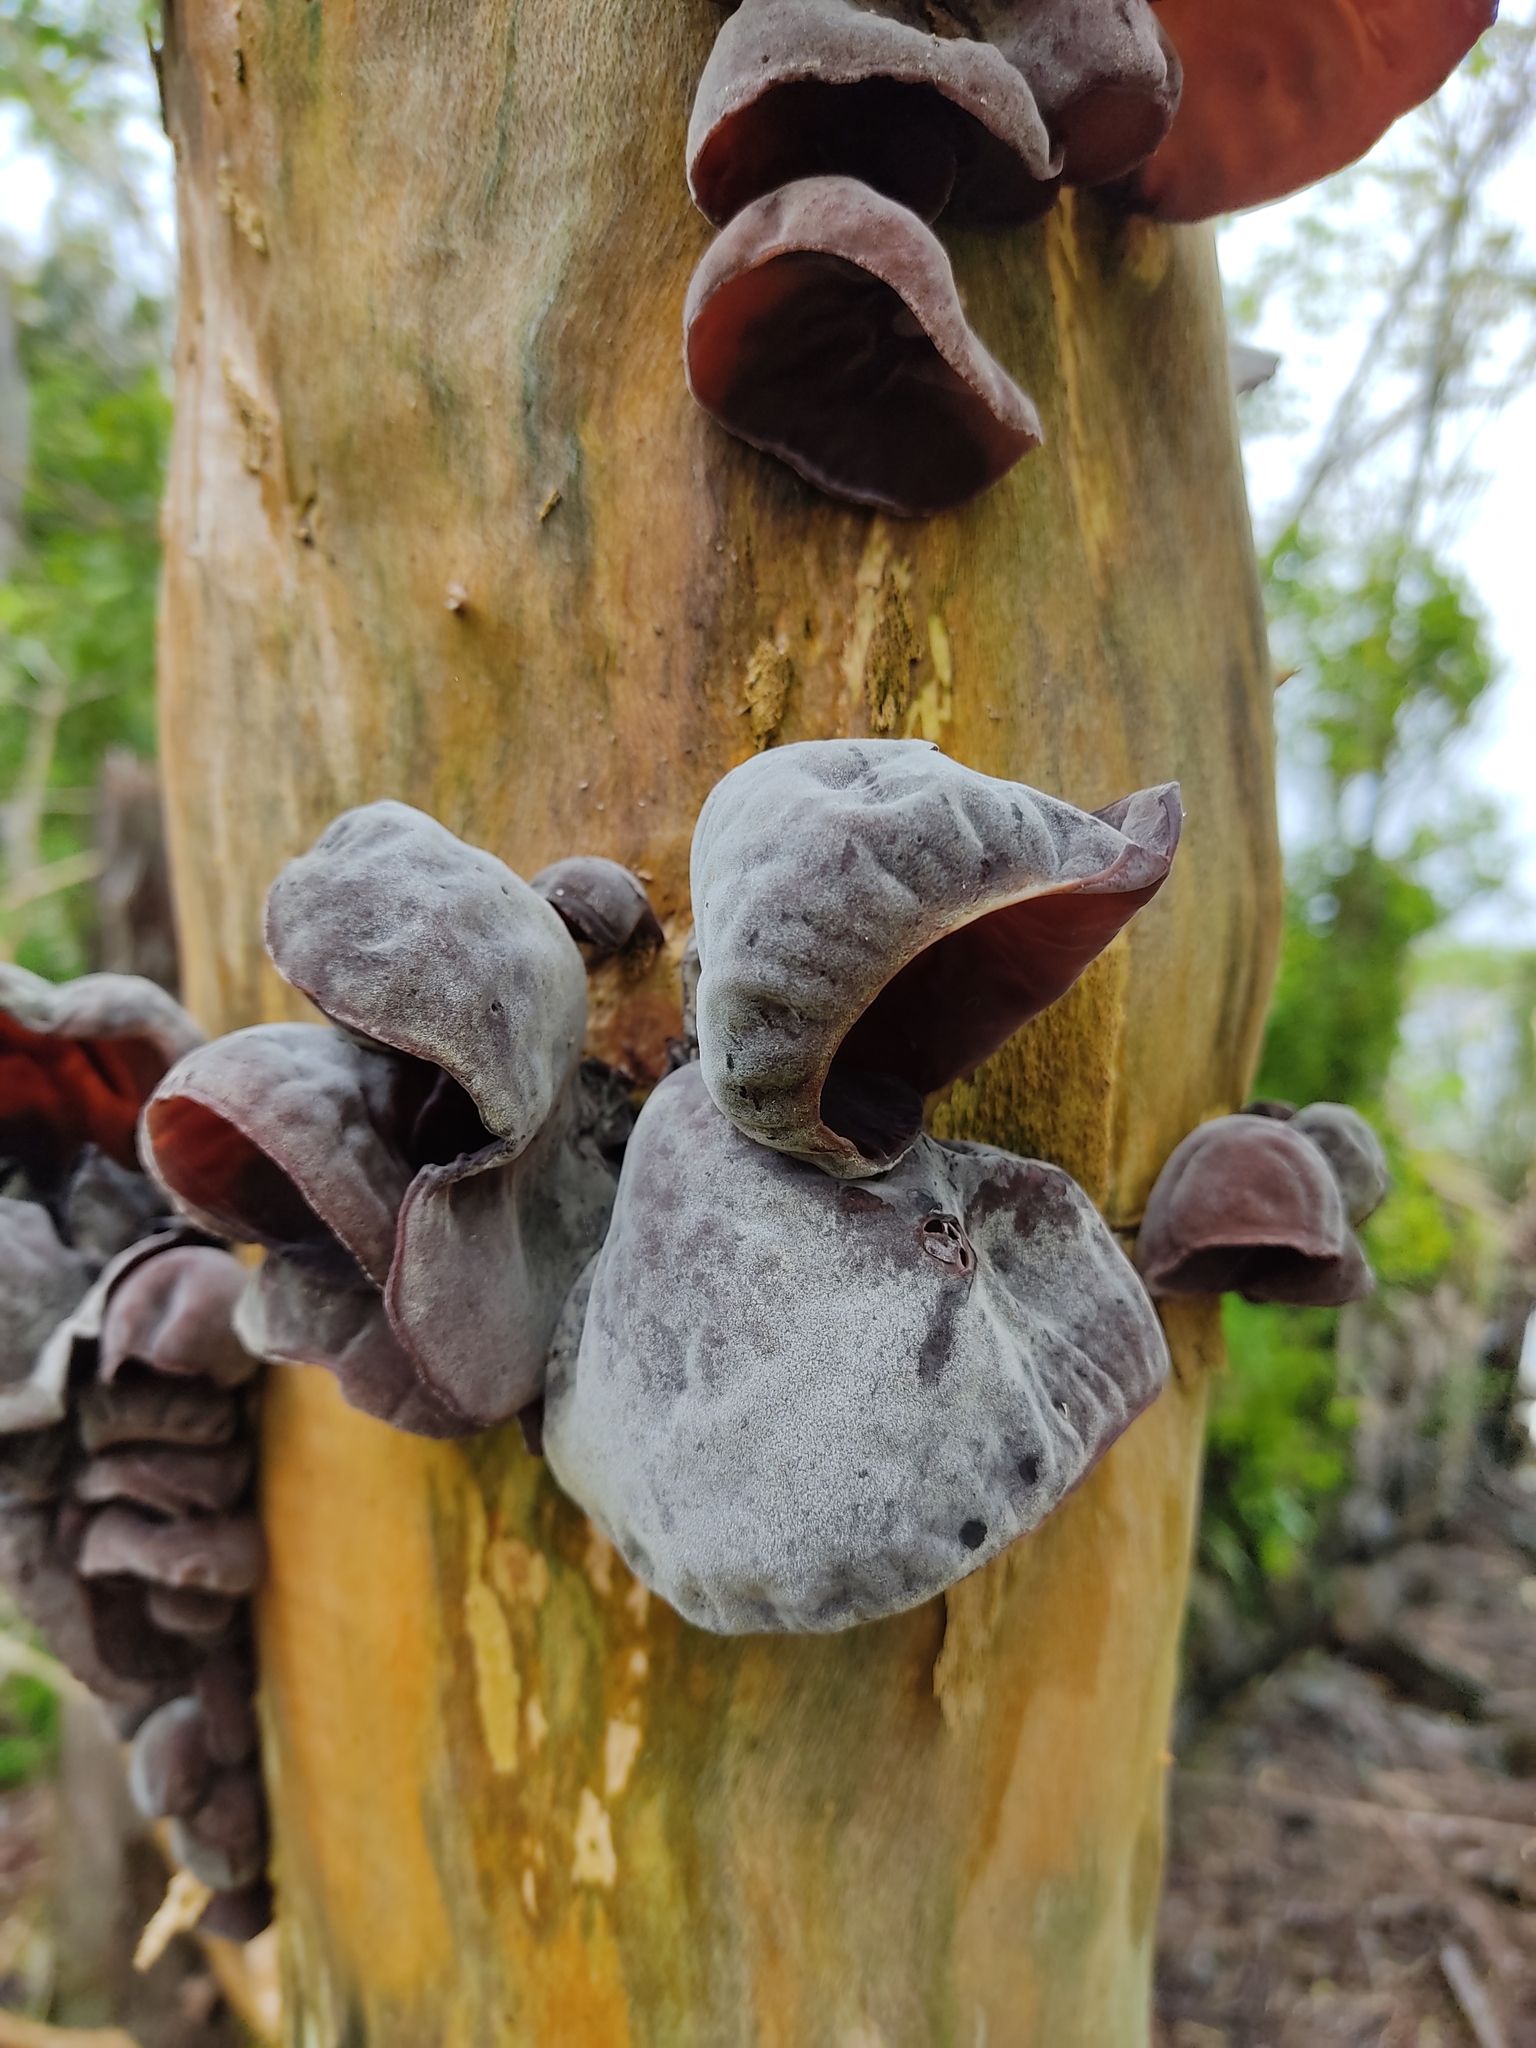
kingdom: Fungi
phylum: Basidiomycota
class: Agaricomycetes
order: Auriculariales
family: Auriculariaceae
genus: Auricularia
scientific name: Auricularia cornea
